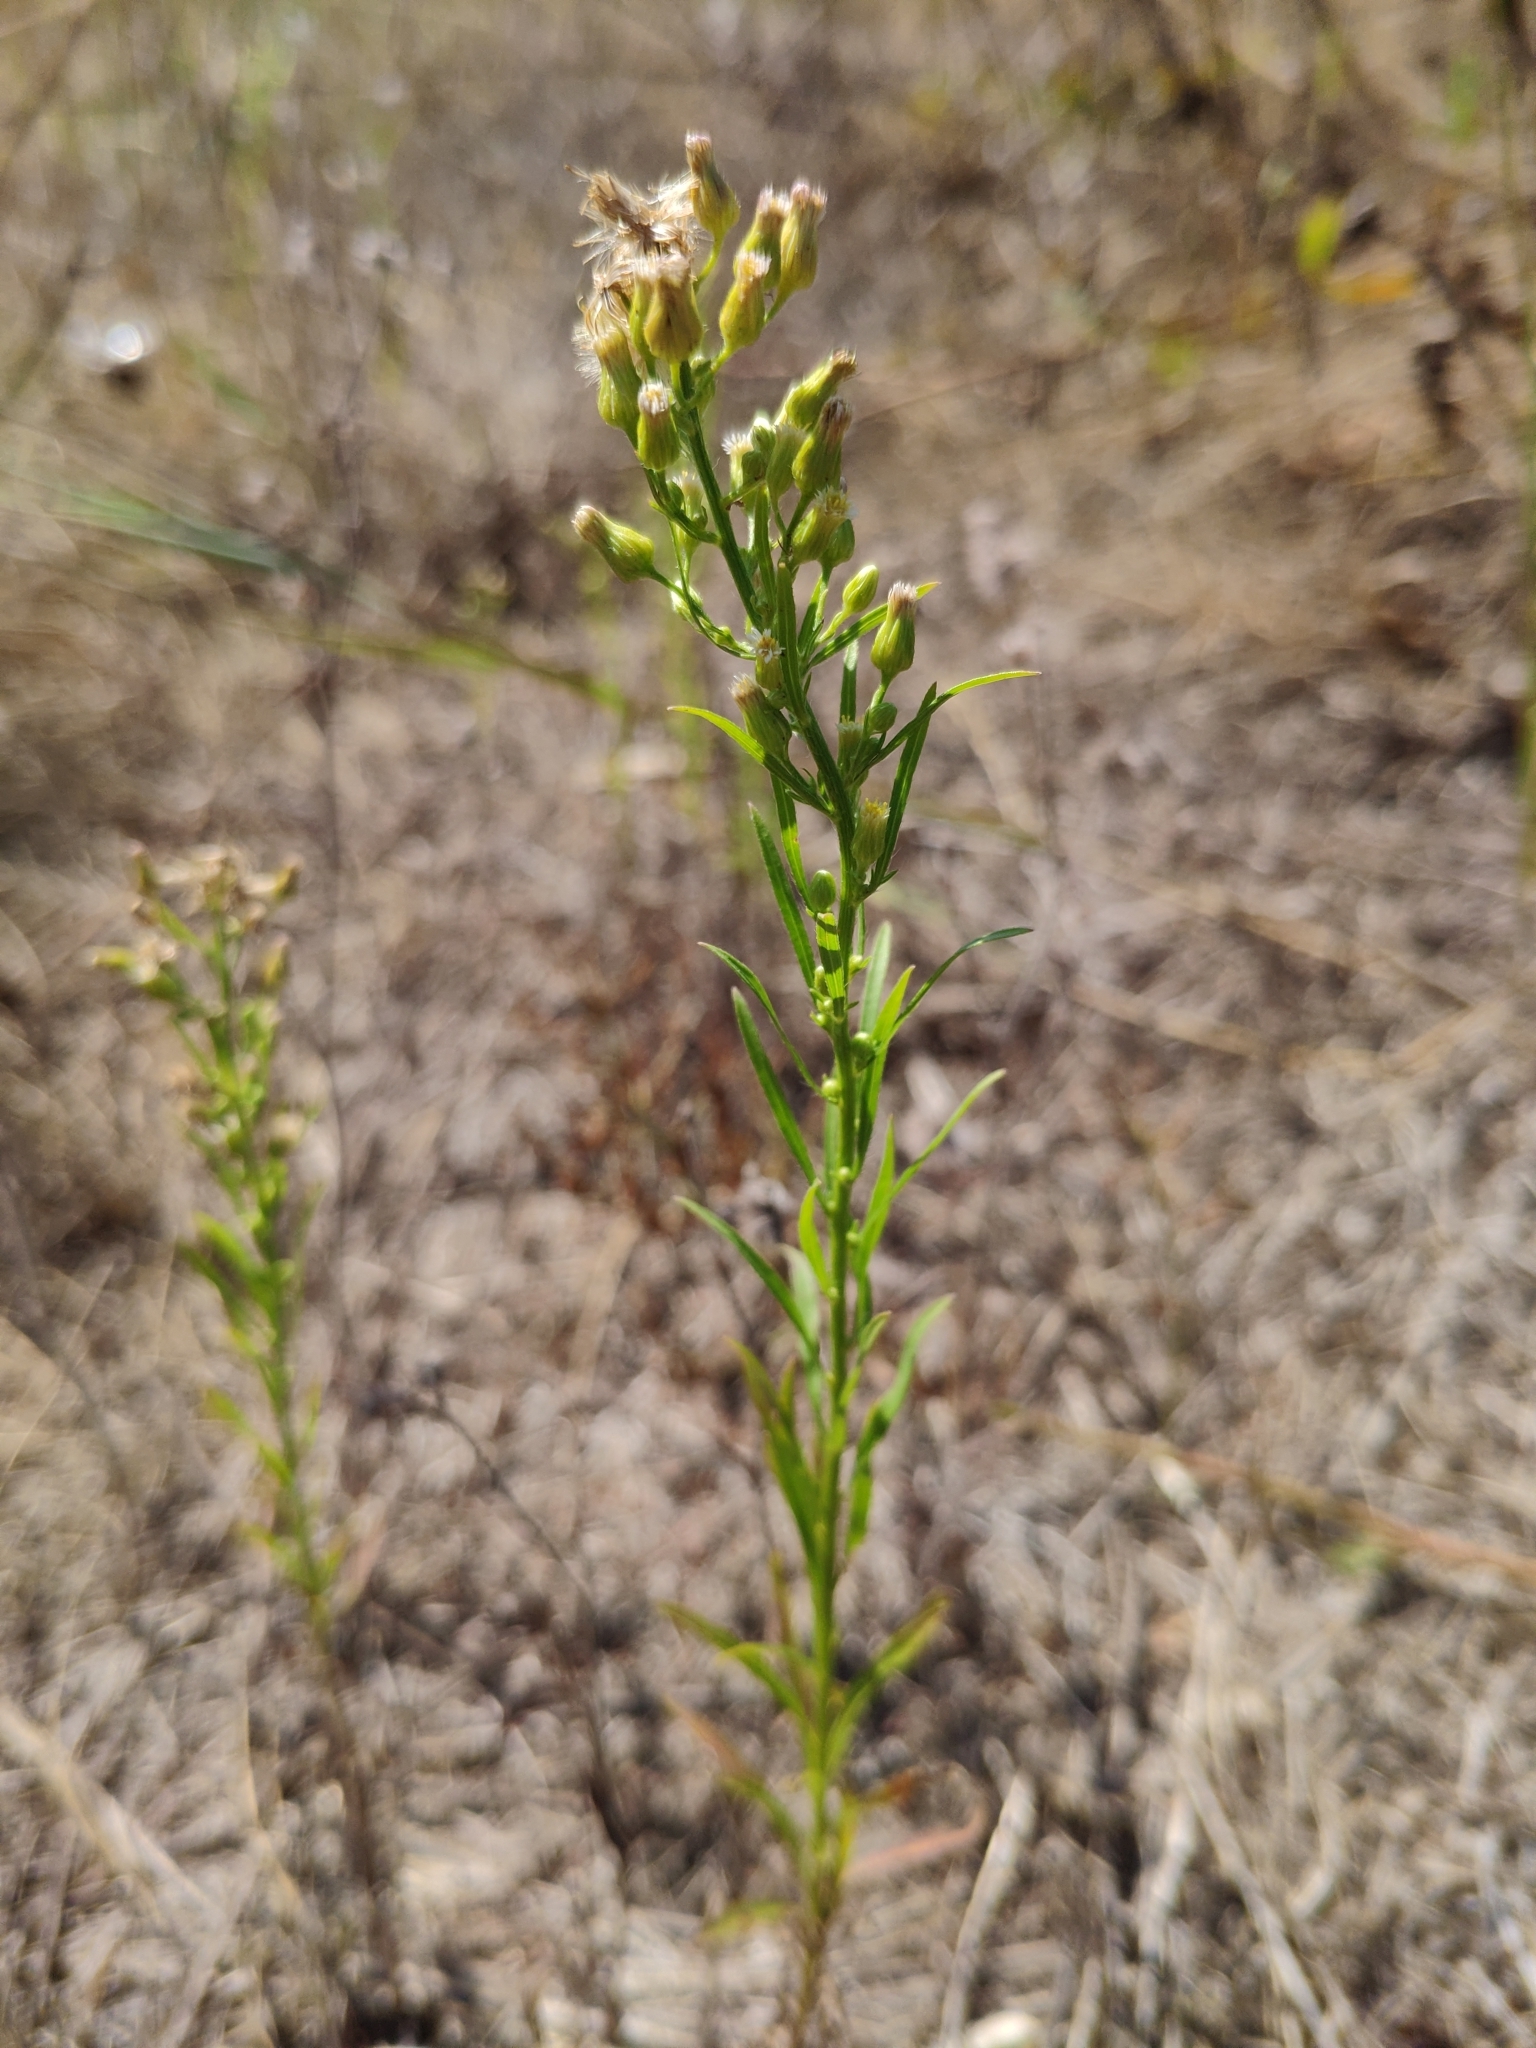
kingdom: Plantae
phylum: Tracheophyta
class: Magnoliopsida
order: Asterales
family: Asteraceae
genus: Erigeron
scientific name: Erigeron canadensis
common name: Canadian fleabane
